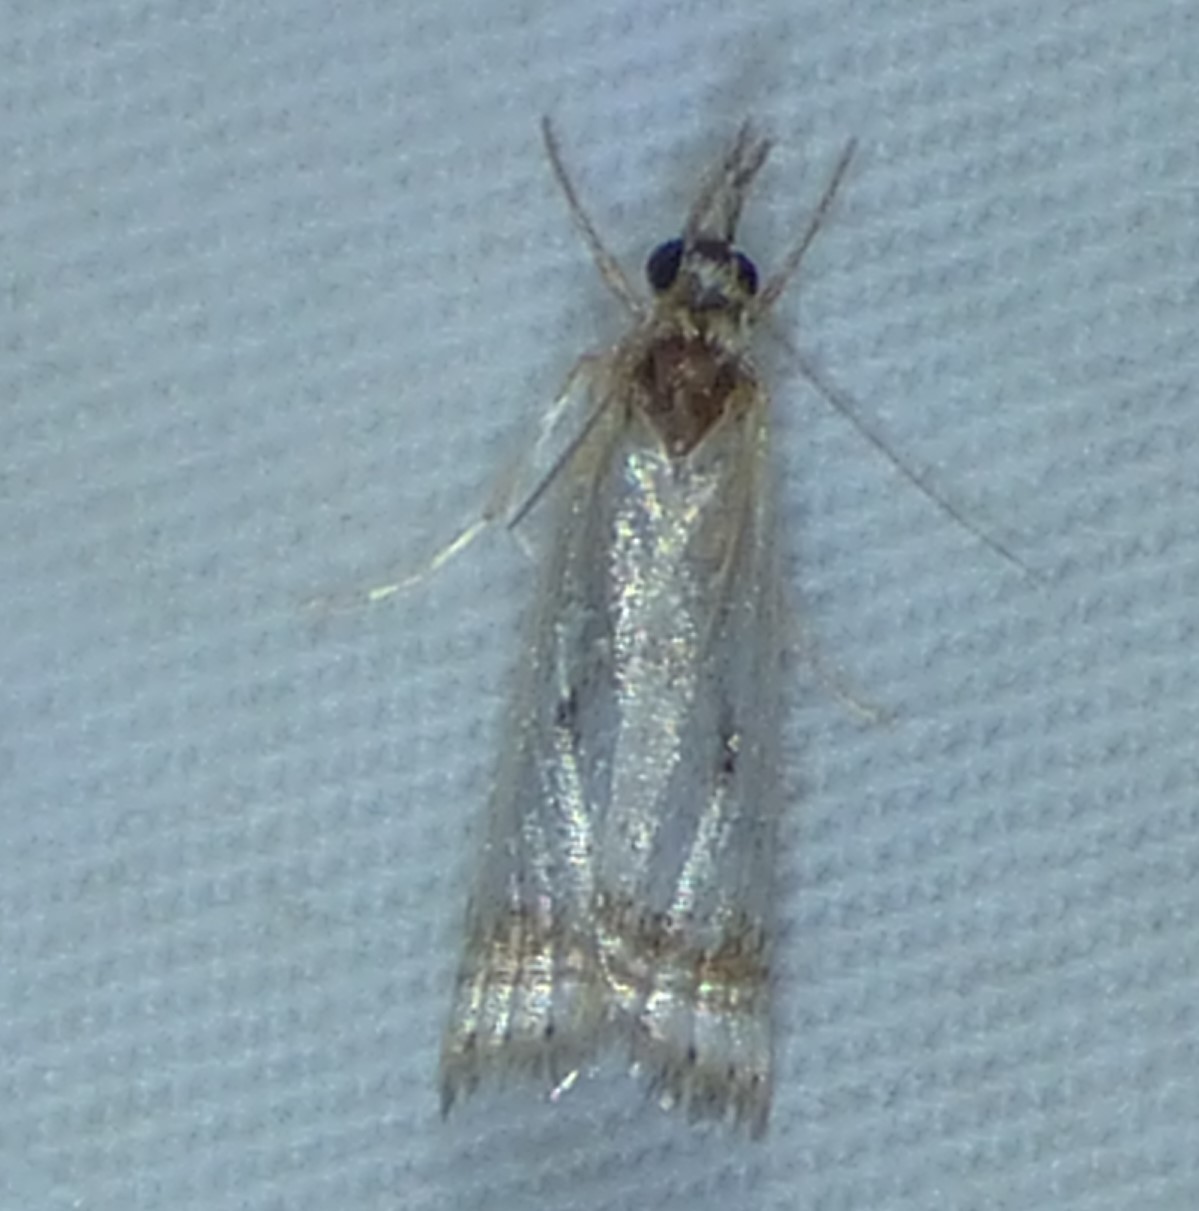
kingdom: Animalia
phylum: Arthropoda
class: Insecta
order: Lepidoptera
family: Crambidae
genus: Microcrambus
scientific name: Microcrambus elegans
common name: Elegant grass-veneer
